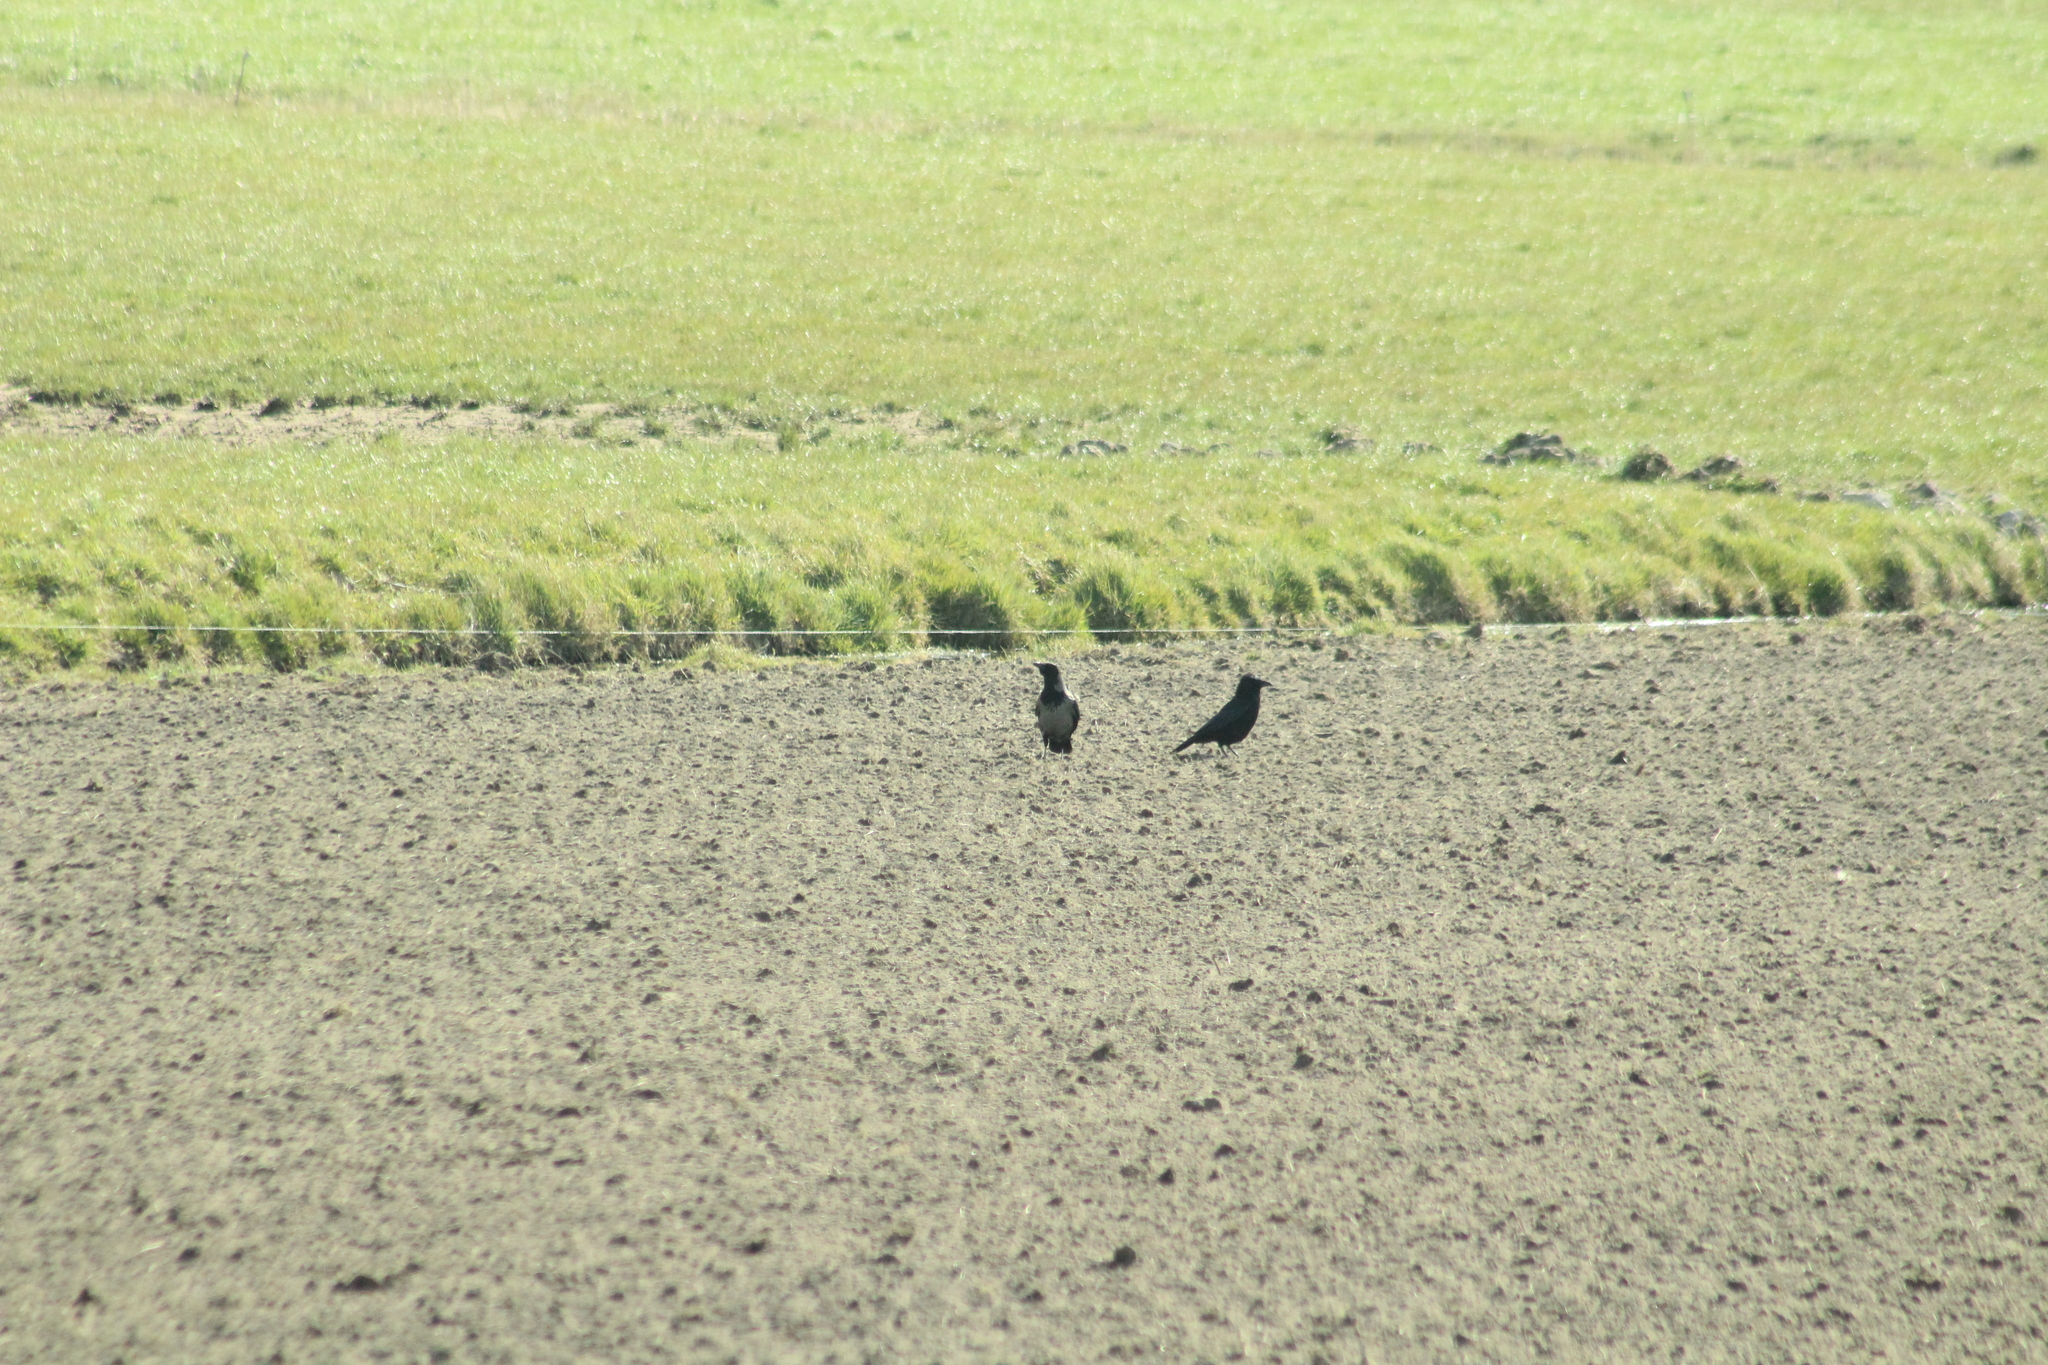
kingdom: Animalia
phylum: Chordata
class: Aves
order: Passeriformes
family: Corvidae
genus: Corvus
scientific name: Corvus cornix
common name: Hooded crow
